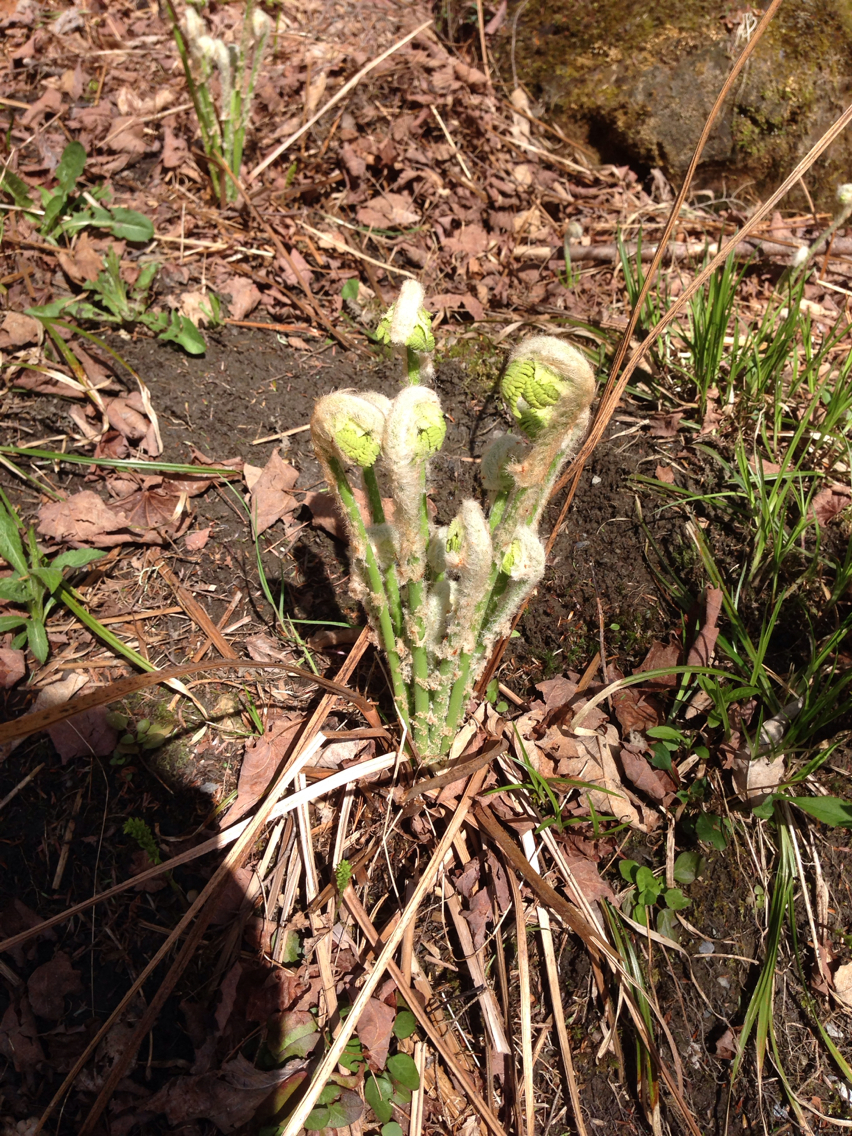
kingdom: Plantae
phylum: Tracheophyta
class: Polypodiopsida
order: Osmundales
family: Osmundaceae
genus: Osmundastrum
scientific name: Osmundastrum cinnamomeum
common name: Cinnamon fern
